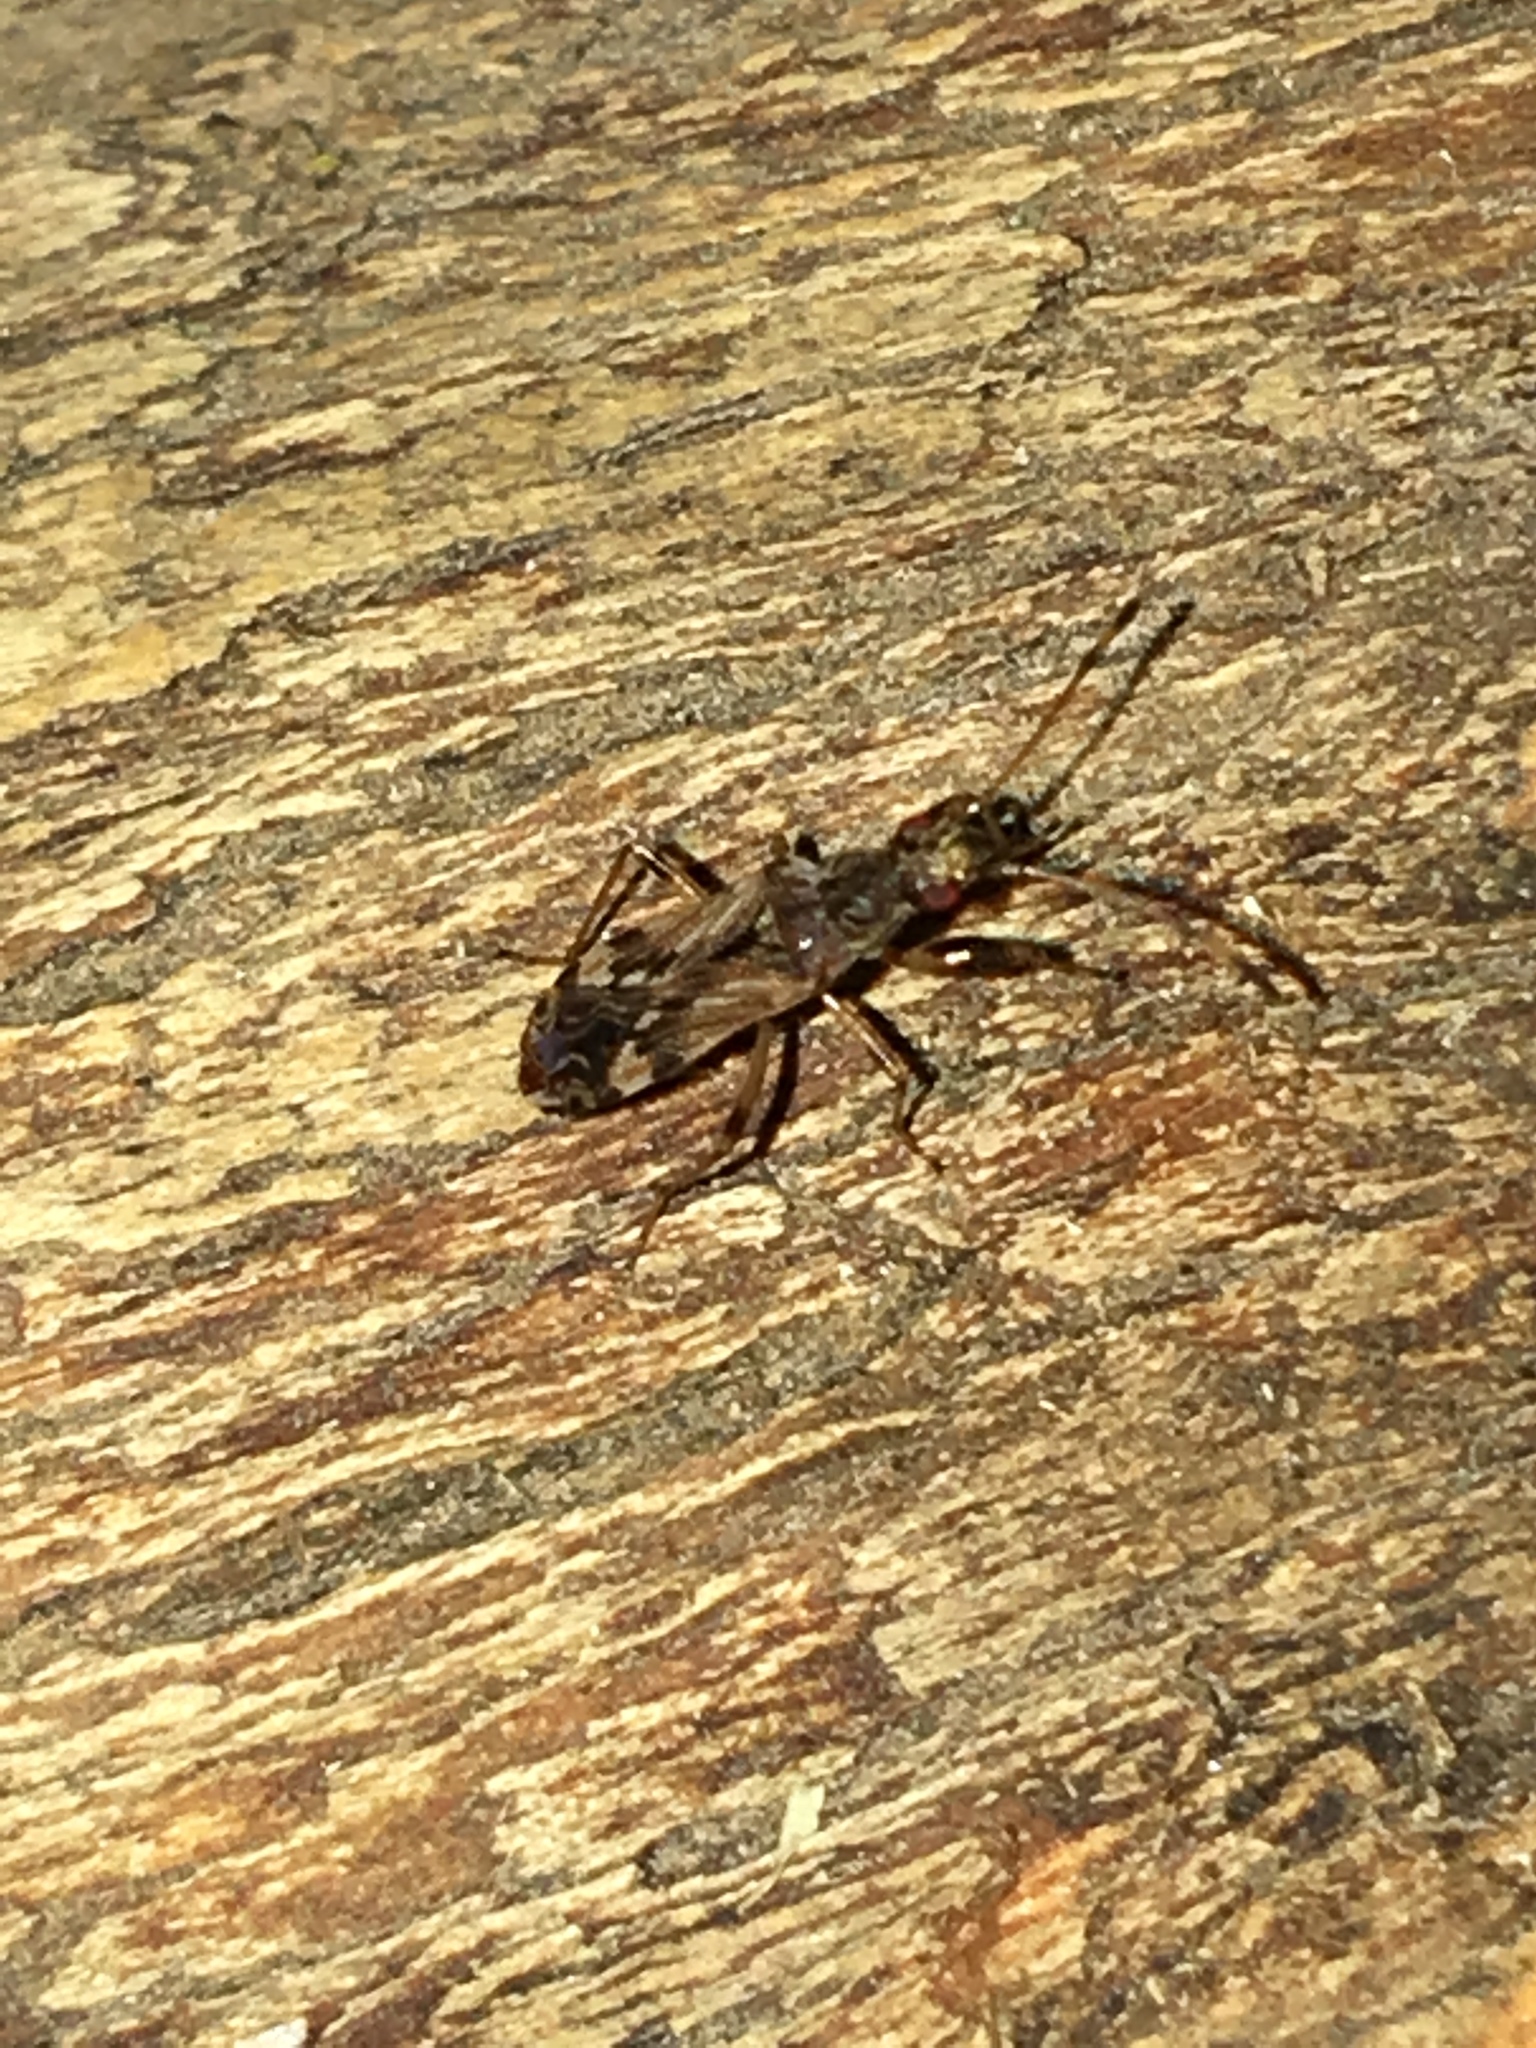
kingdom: Animalia
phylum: Arthropoda
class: Insecta
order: Hemiptera
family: Rhyparochromidae
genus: Neopamera
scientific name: Neopamera albocincta
